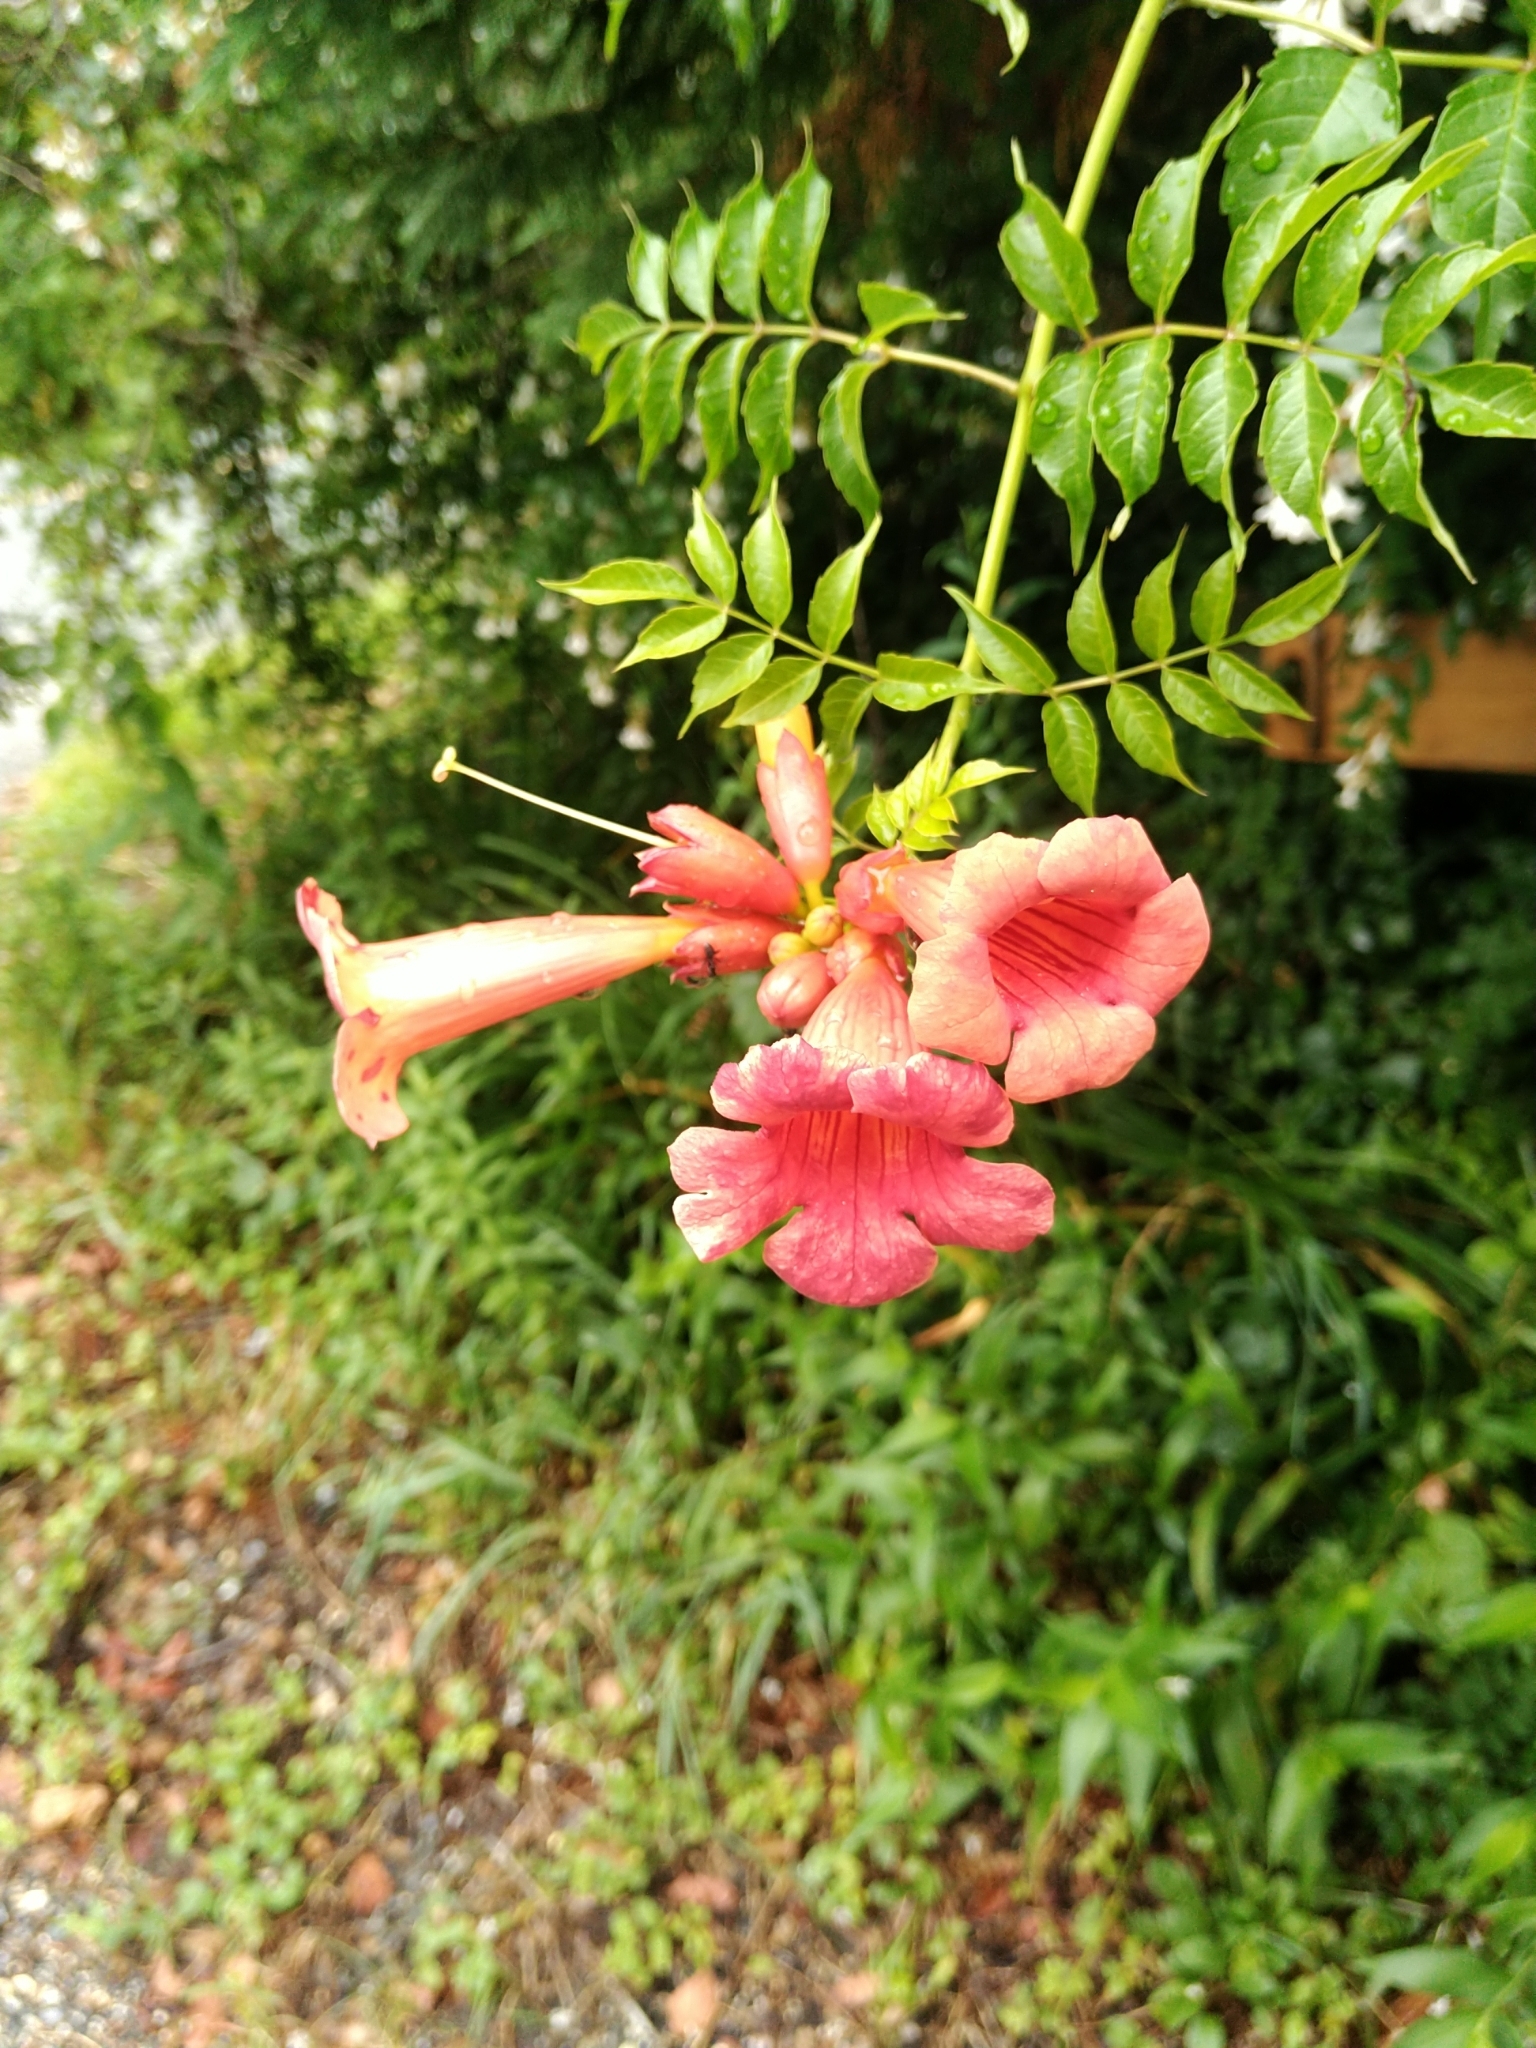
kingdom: Plantae
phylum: Tracheophyta
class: Magnoliopsida
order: Lamiales
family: Bignoniaceae
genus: Campsis
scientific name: Campsis radicans
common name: Trumpet-creeper
